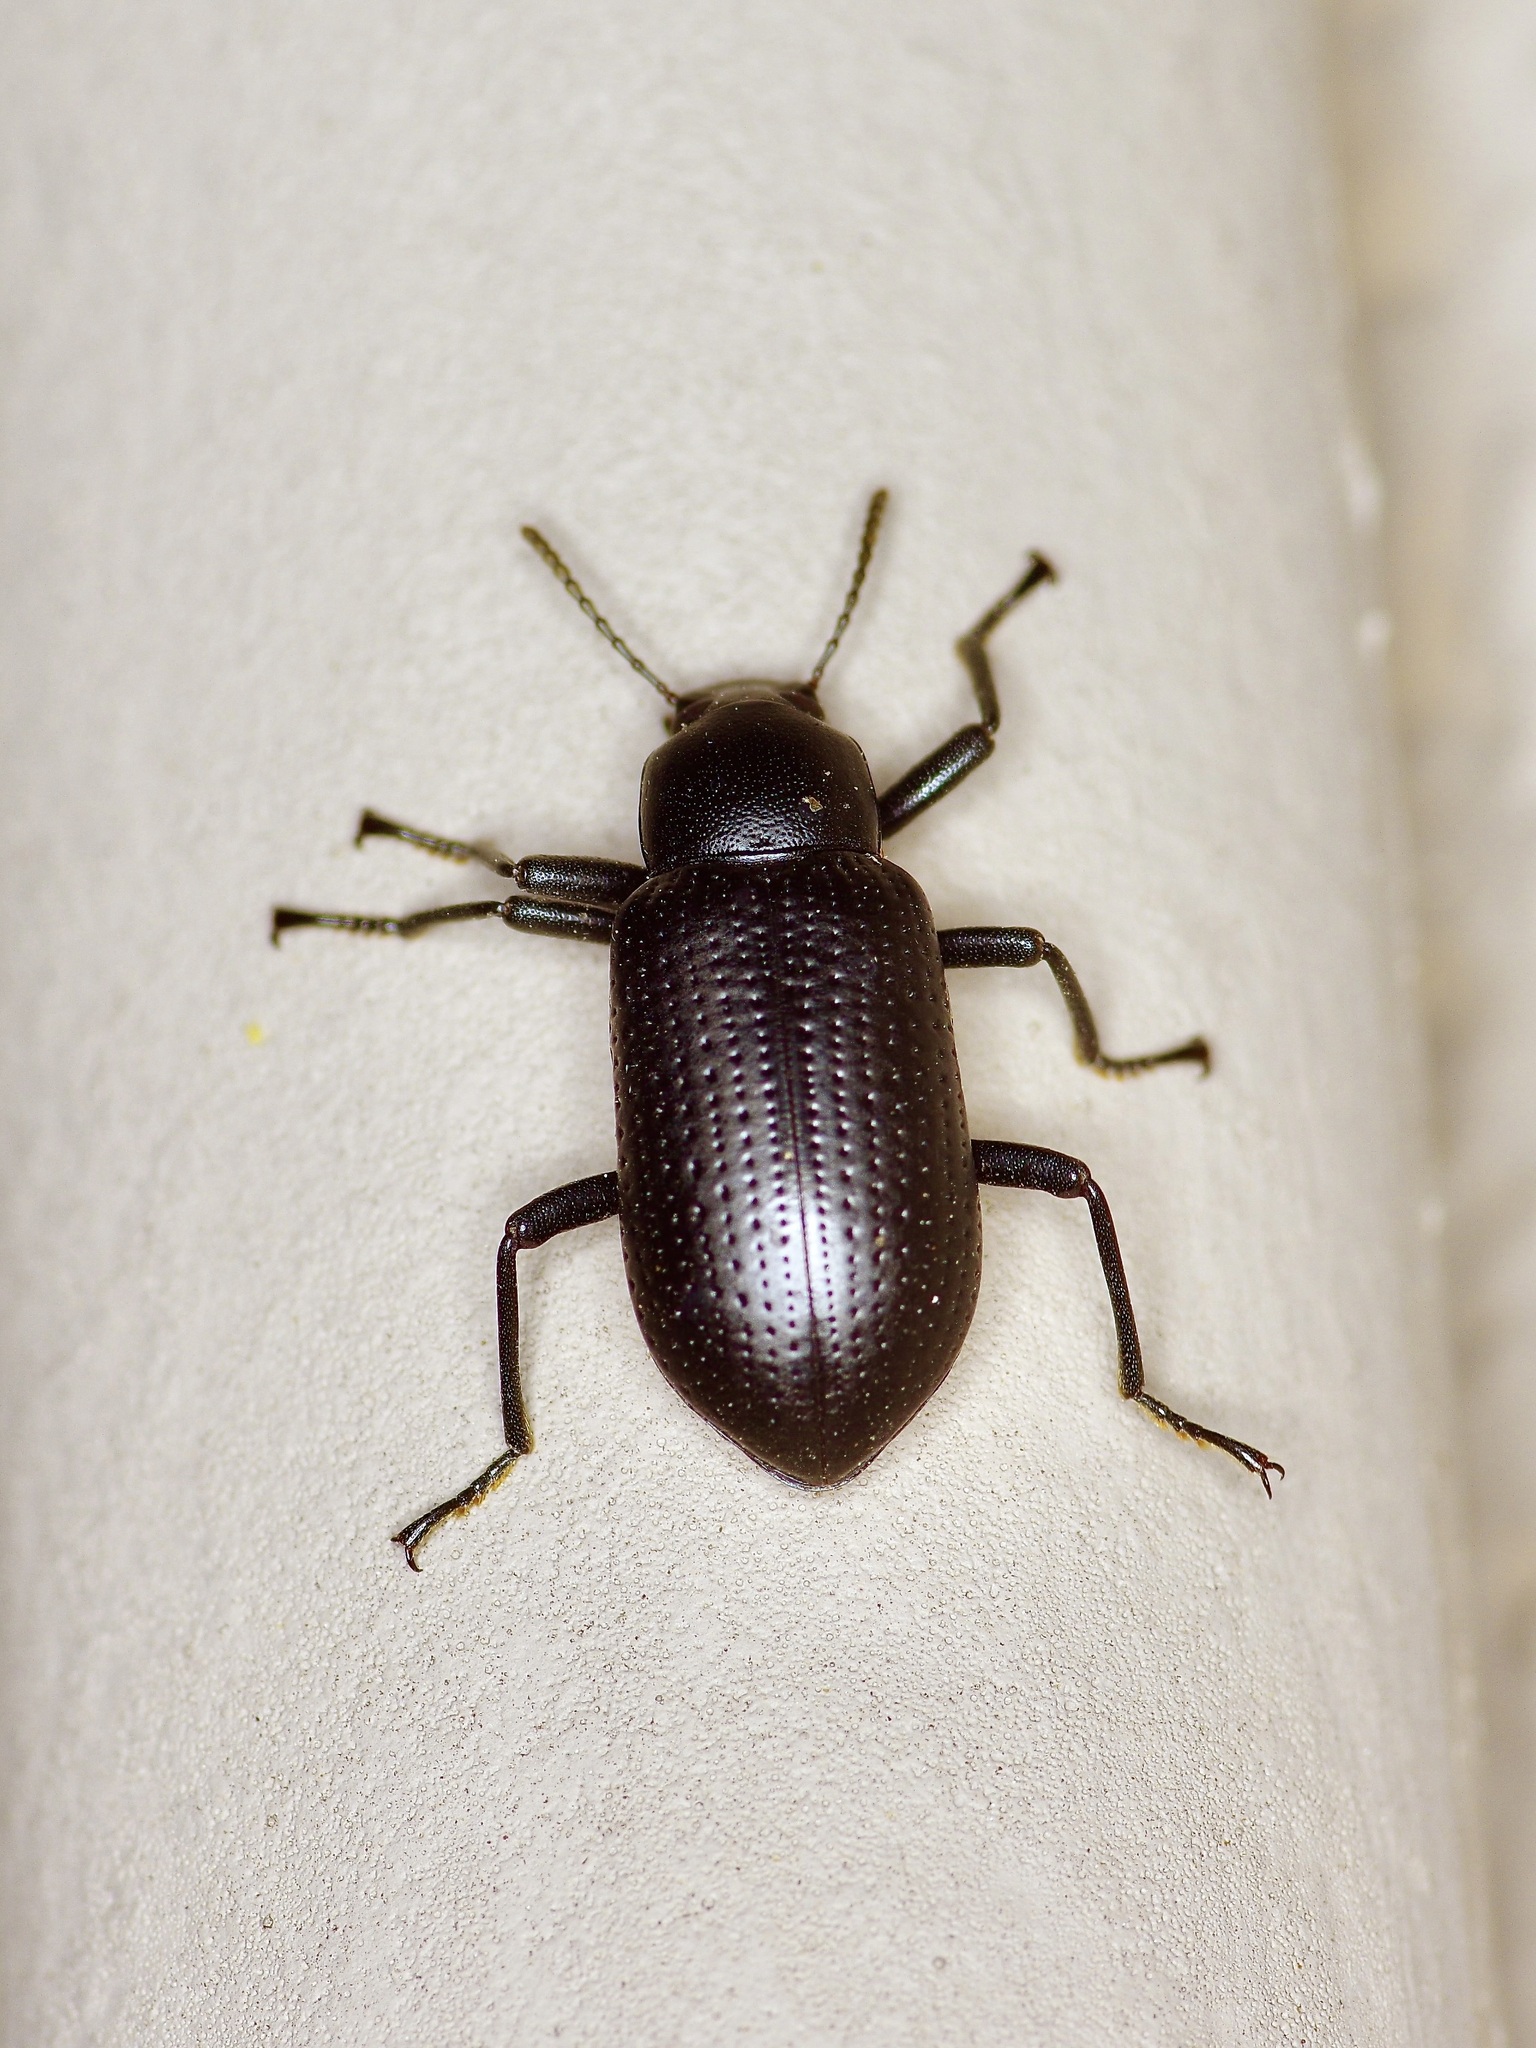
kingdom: Animalia
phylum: Arthropoda
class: Insecta
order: Coleoptera
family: Tenebrionidae
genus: Glyptotus
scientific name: Glyptotus cribratus
